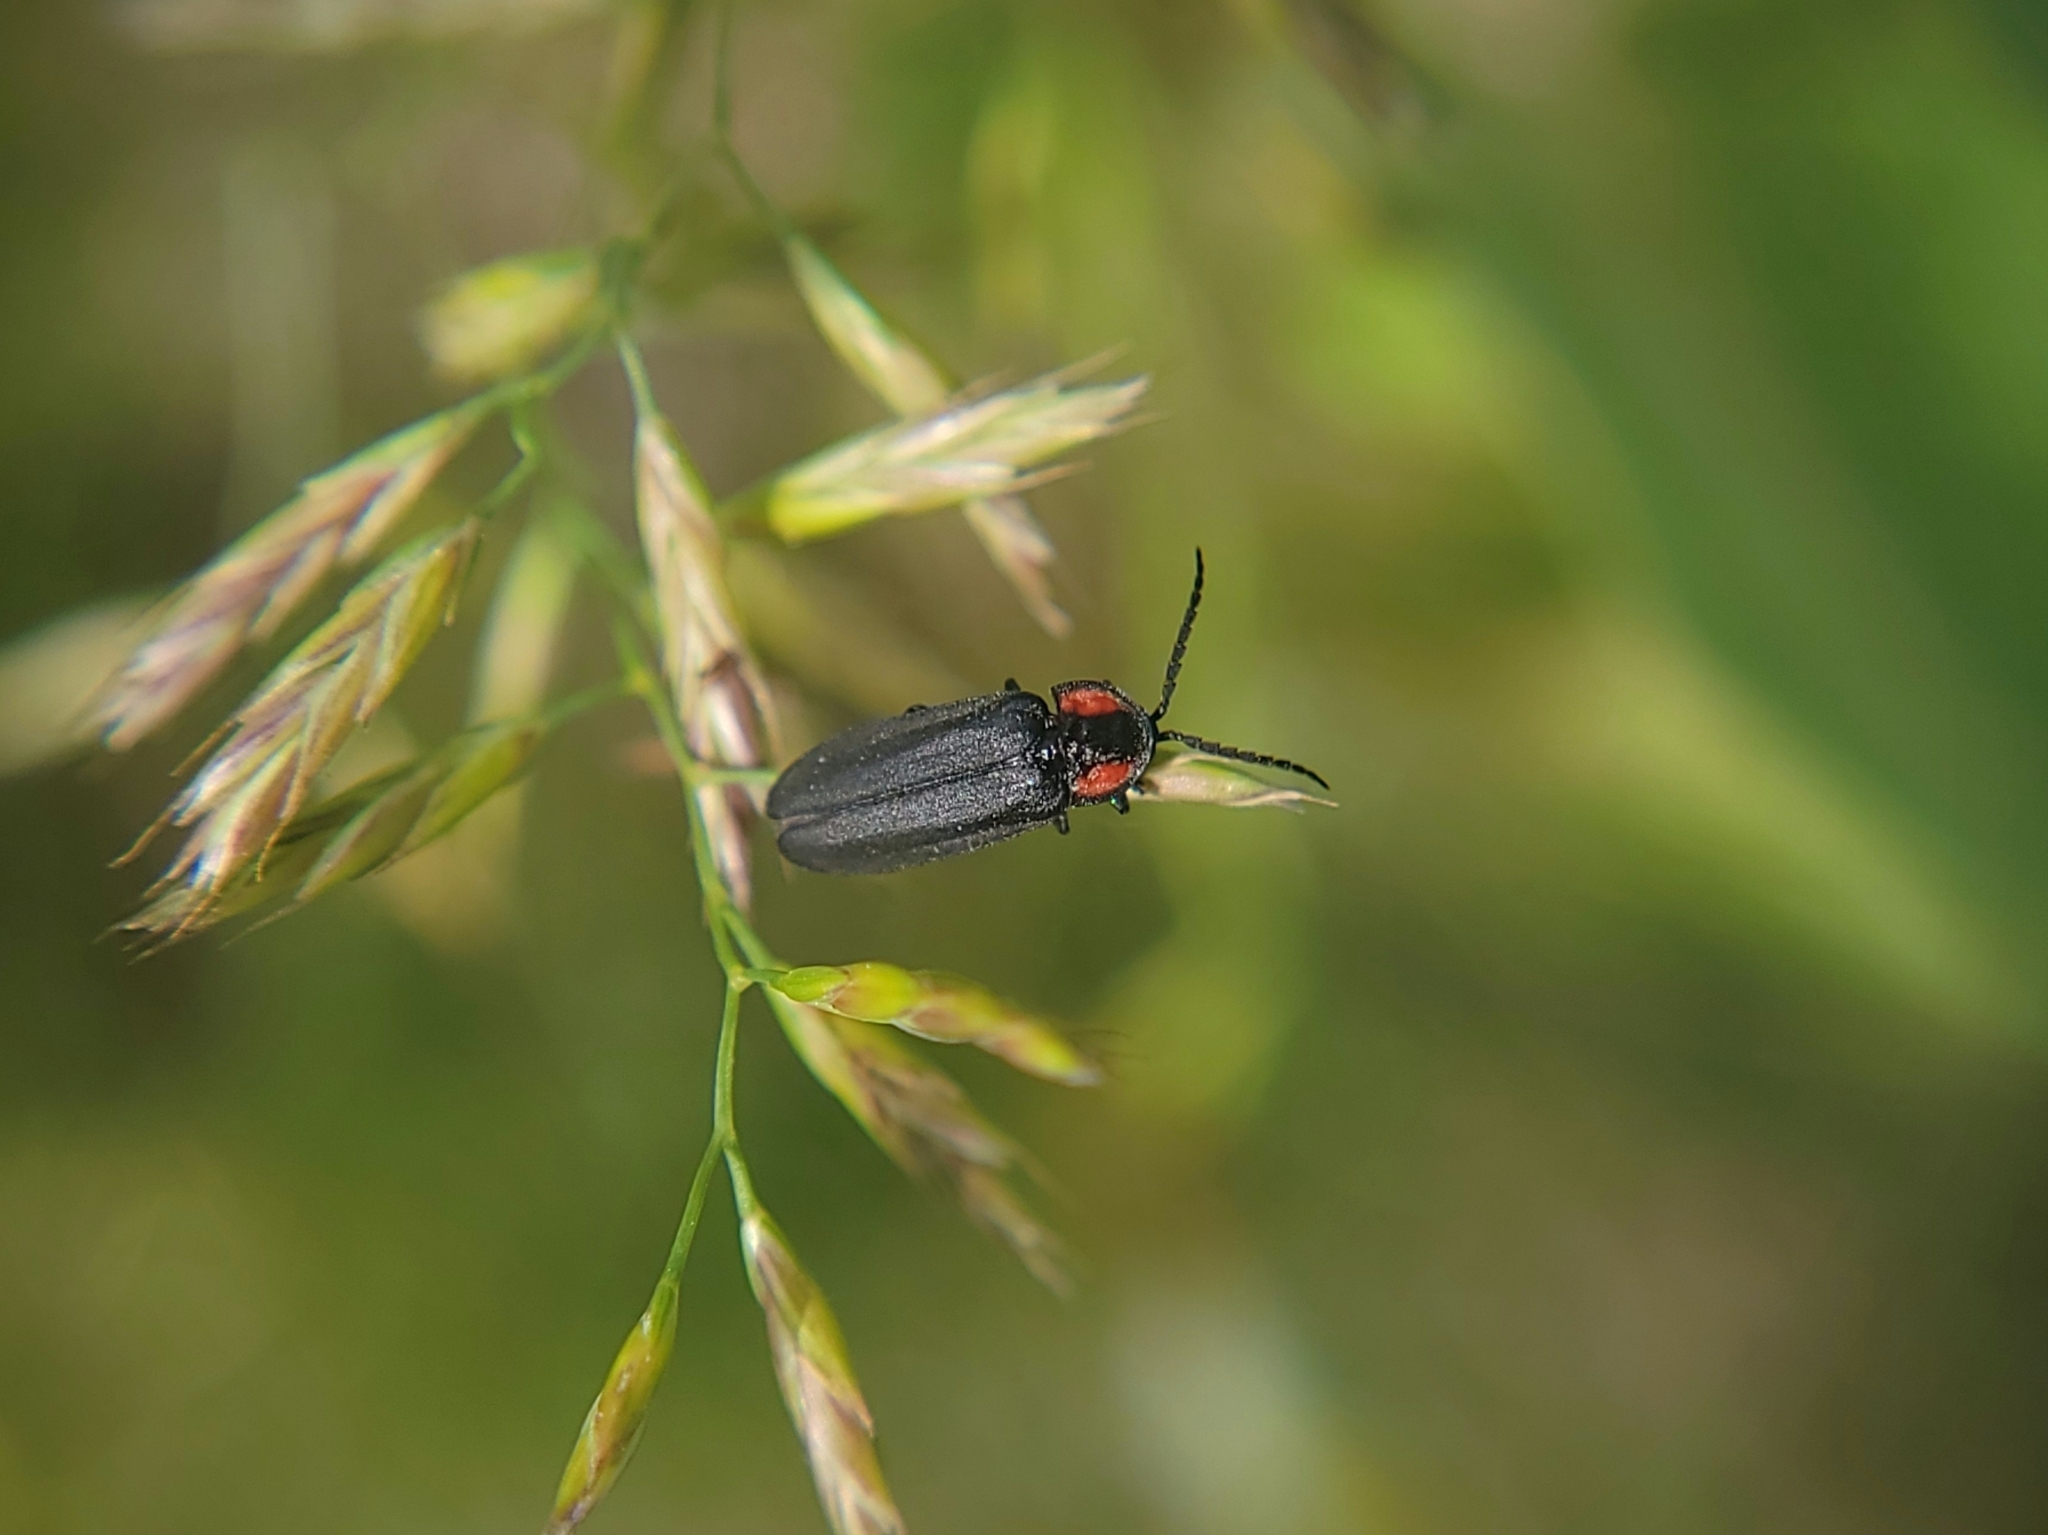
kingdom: Animalia
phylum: Arthropoda
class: Insecta
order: Coleoptera
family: Lampyridae
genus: Pyropyga
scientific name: Pyropyga nigricans
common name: Dark firefly
